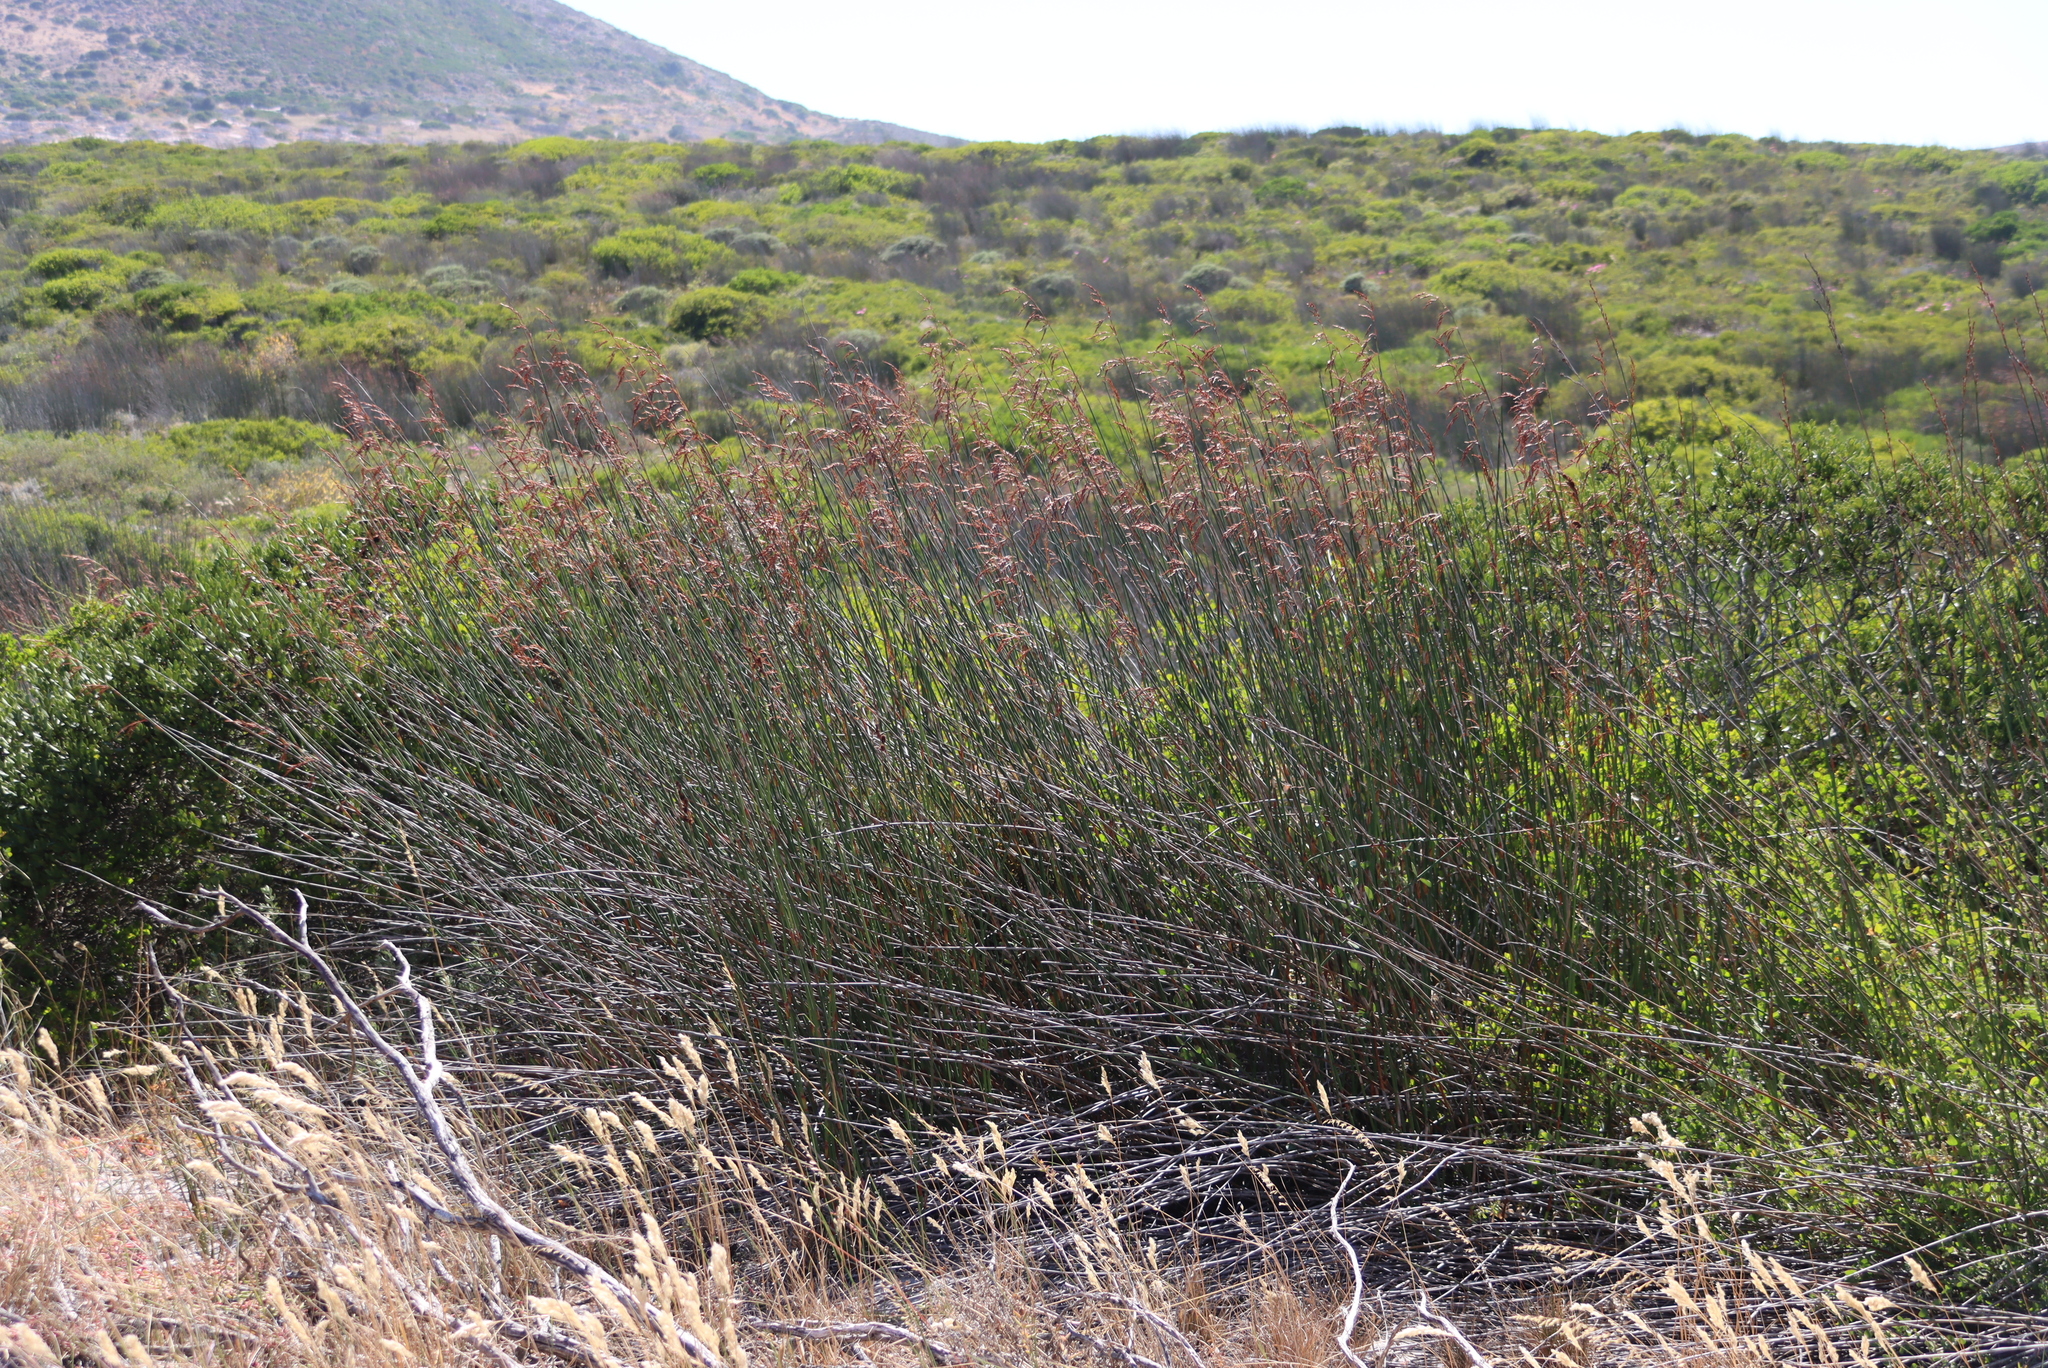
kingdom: Plantae
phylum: Tracheophyta
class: Liliopsida
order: Poales
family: Restionaceae
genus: Thamnochortus
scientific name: Thamnochortus spicigerus
